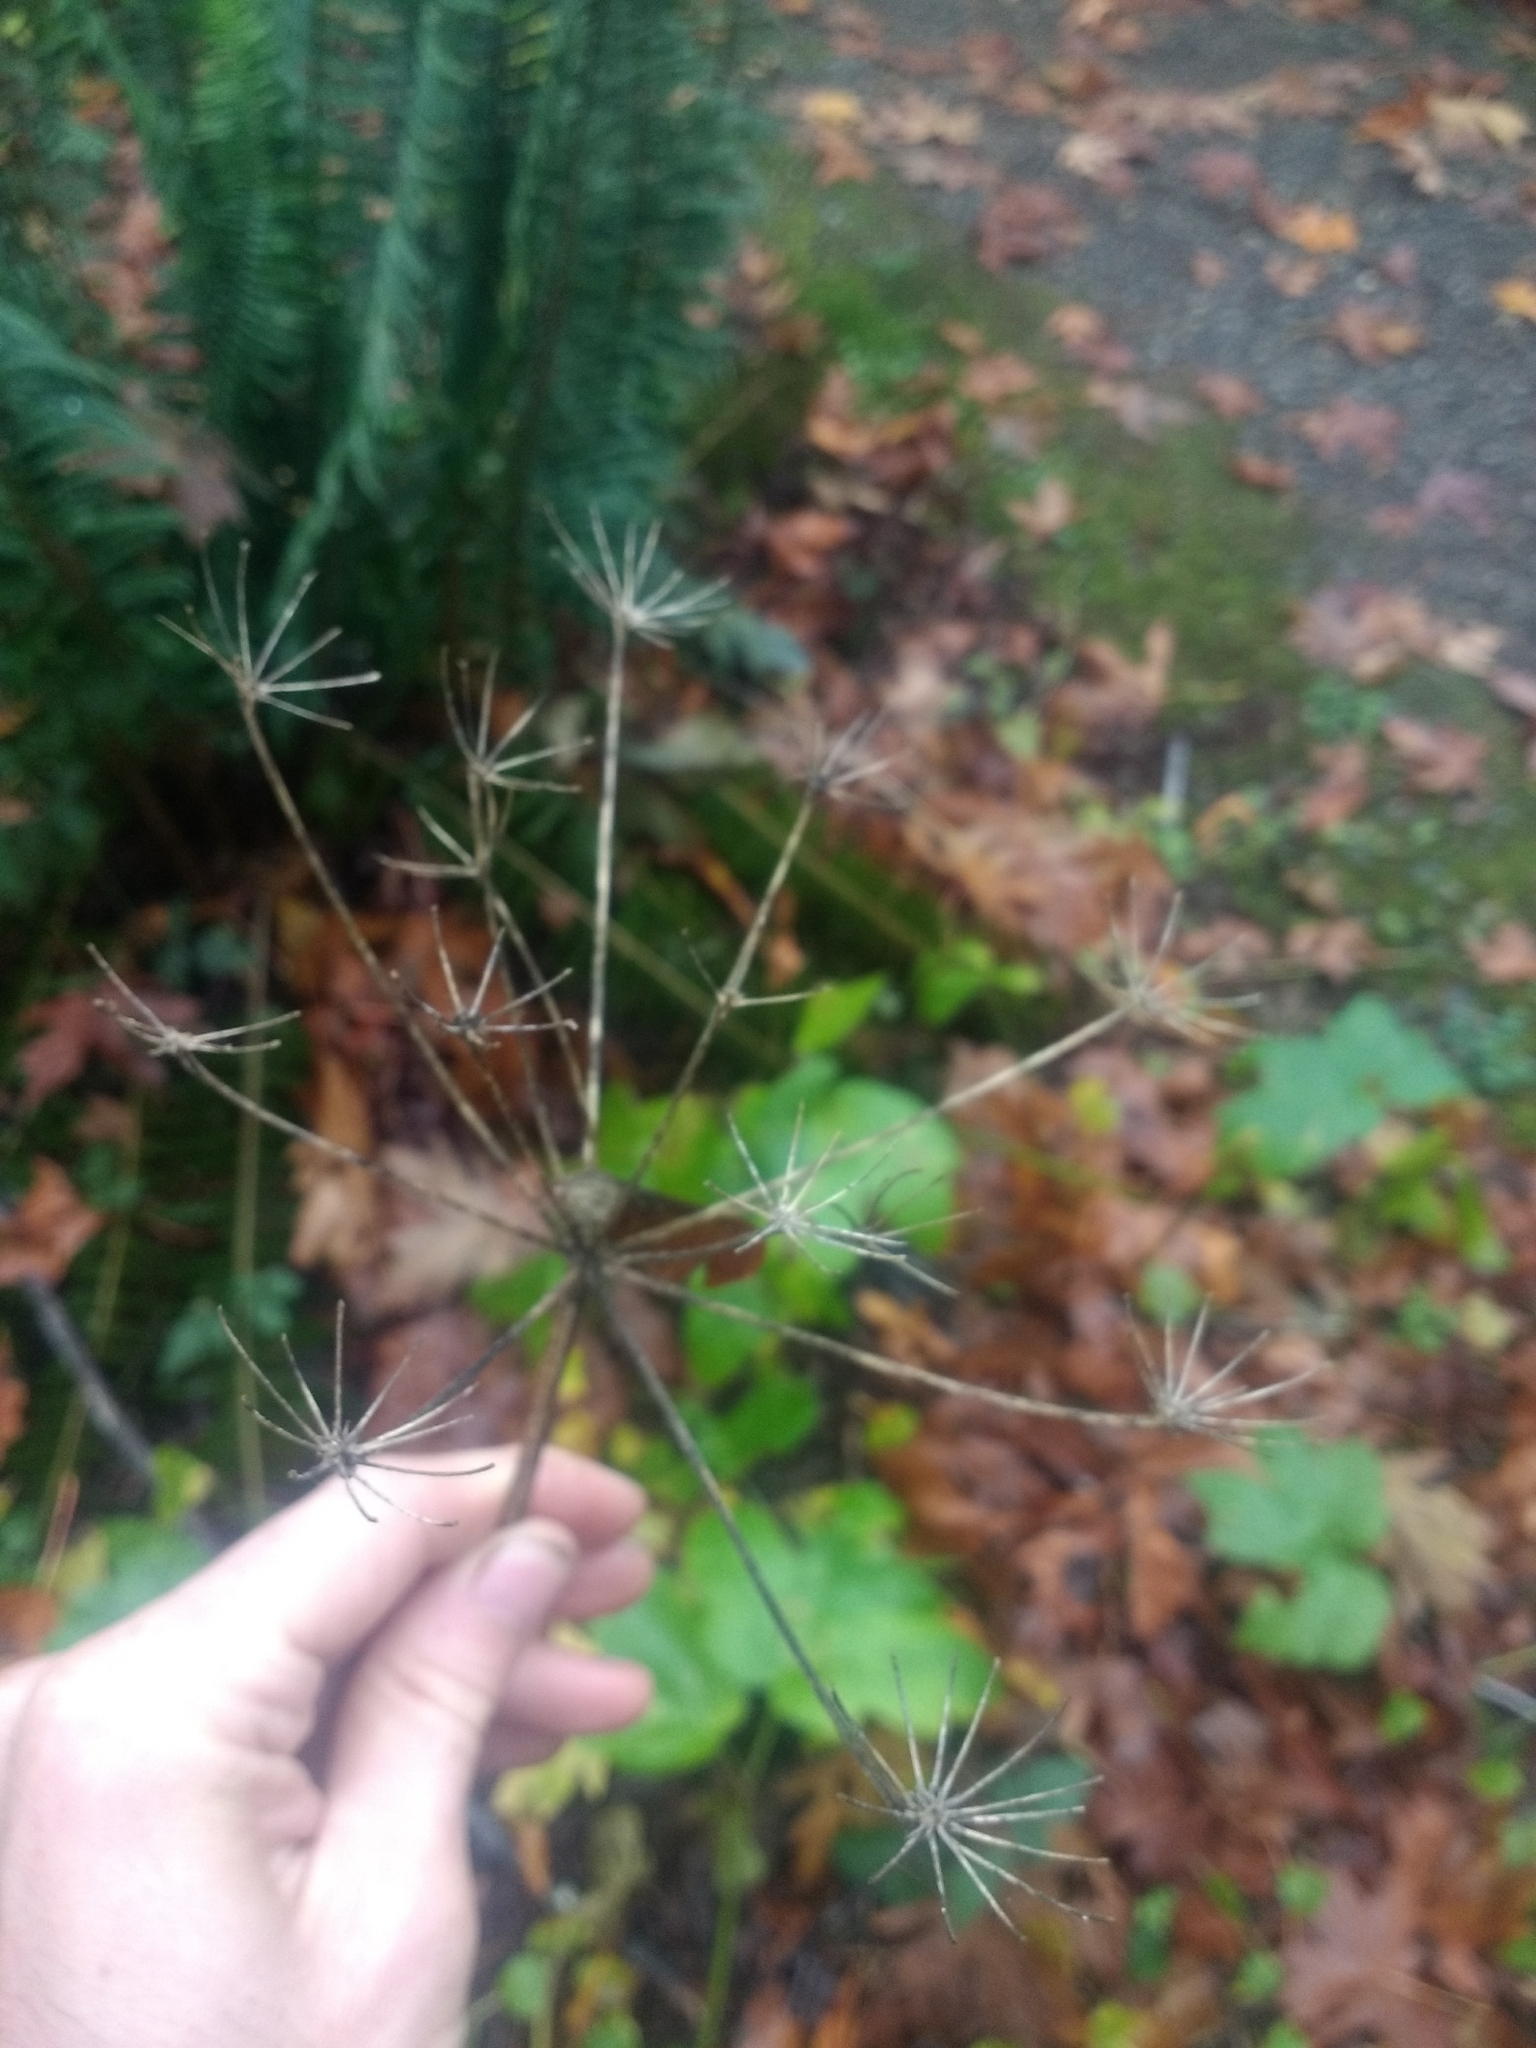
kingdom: Plantae
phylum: Tracheophyta
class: Magnoliopsida
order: Apiales
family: Apiaceae
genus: Heracleum
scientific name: Heracleum maximum
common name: American cow parsnip
